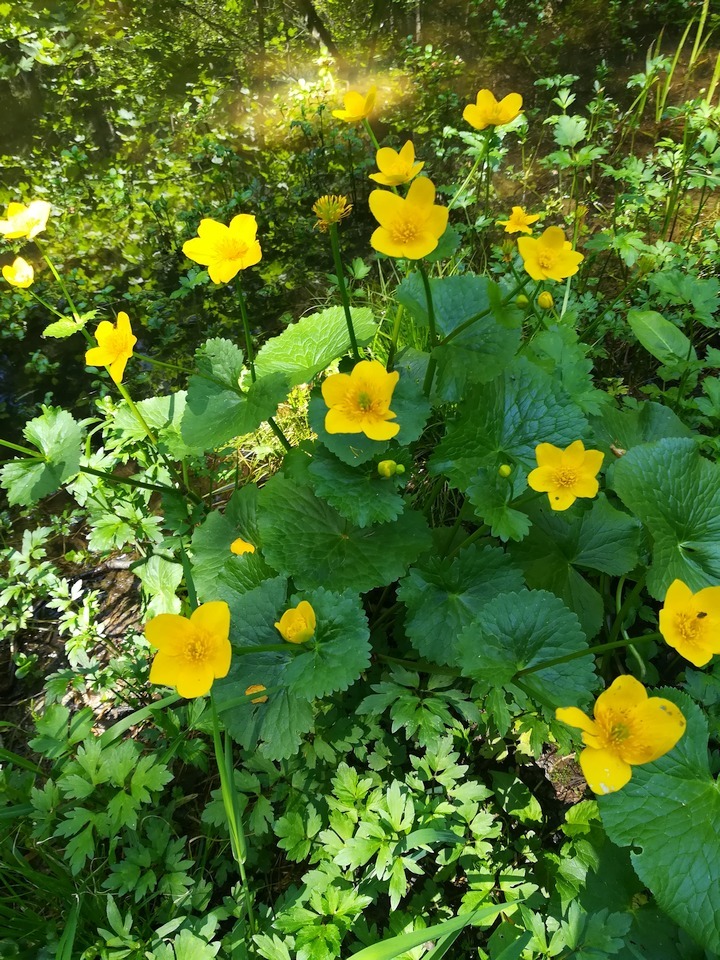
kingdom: Plantae
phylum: Tracheophyta
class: Magnoliopsida
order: Ranunculales
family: Ranunculaceae
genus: Caltha
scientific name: Caltha palustris
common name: Marsh marigold
